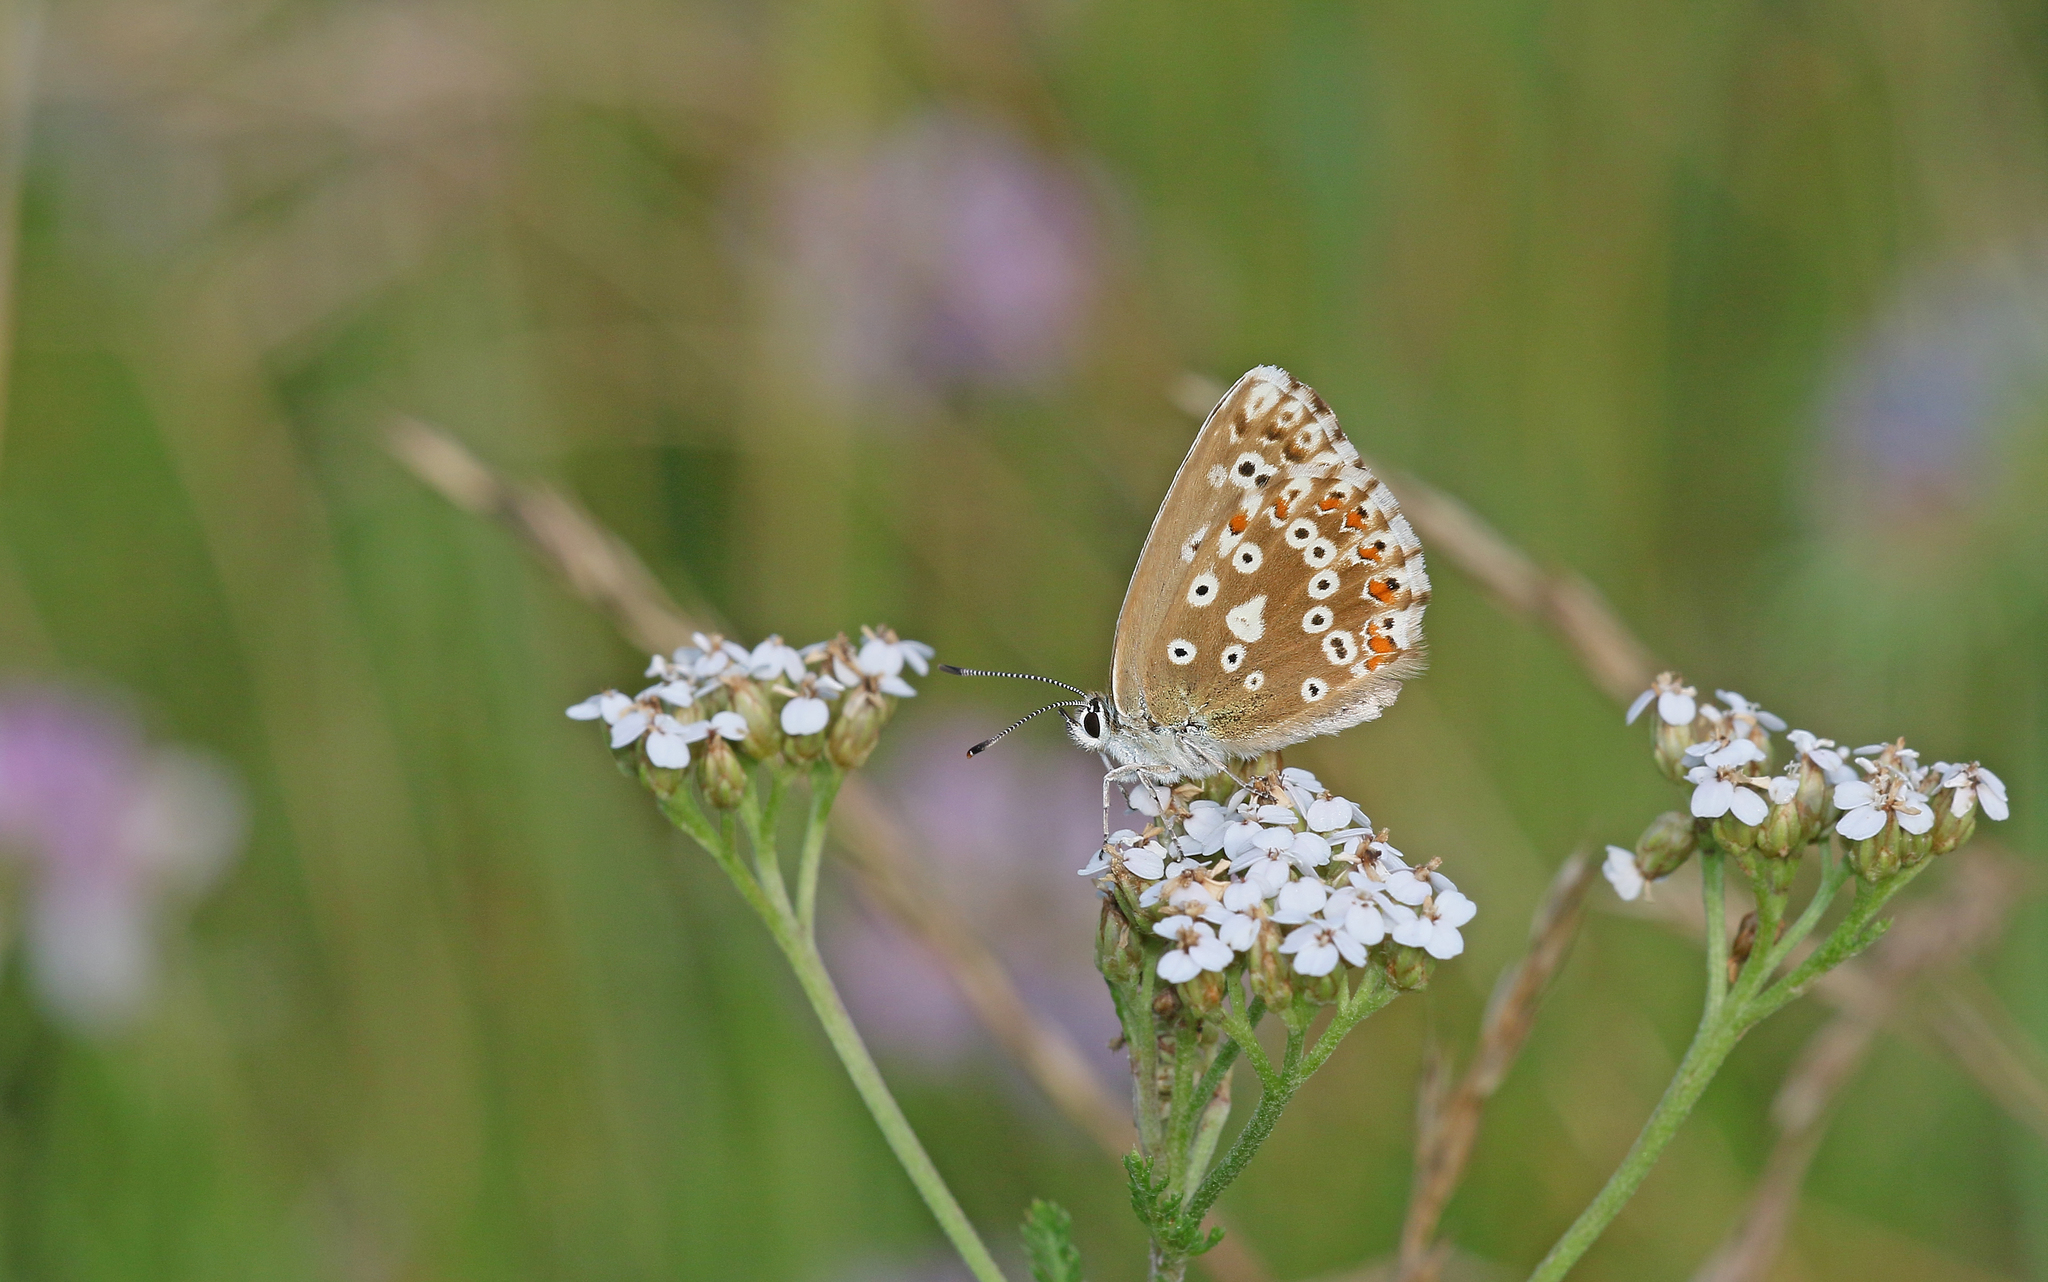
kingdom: Animalia
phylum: Arthropoda
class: Insecta
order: Lepidoptera
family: Lycaenidae
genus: Lysandra
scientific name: Lysandra coridon
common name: Chalkhill blue
